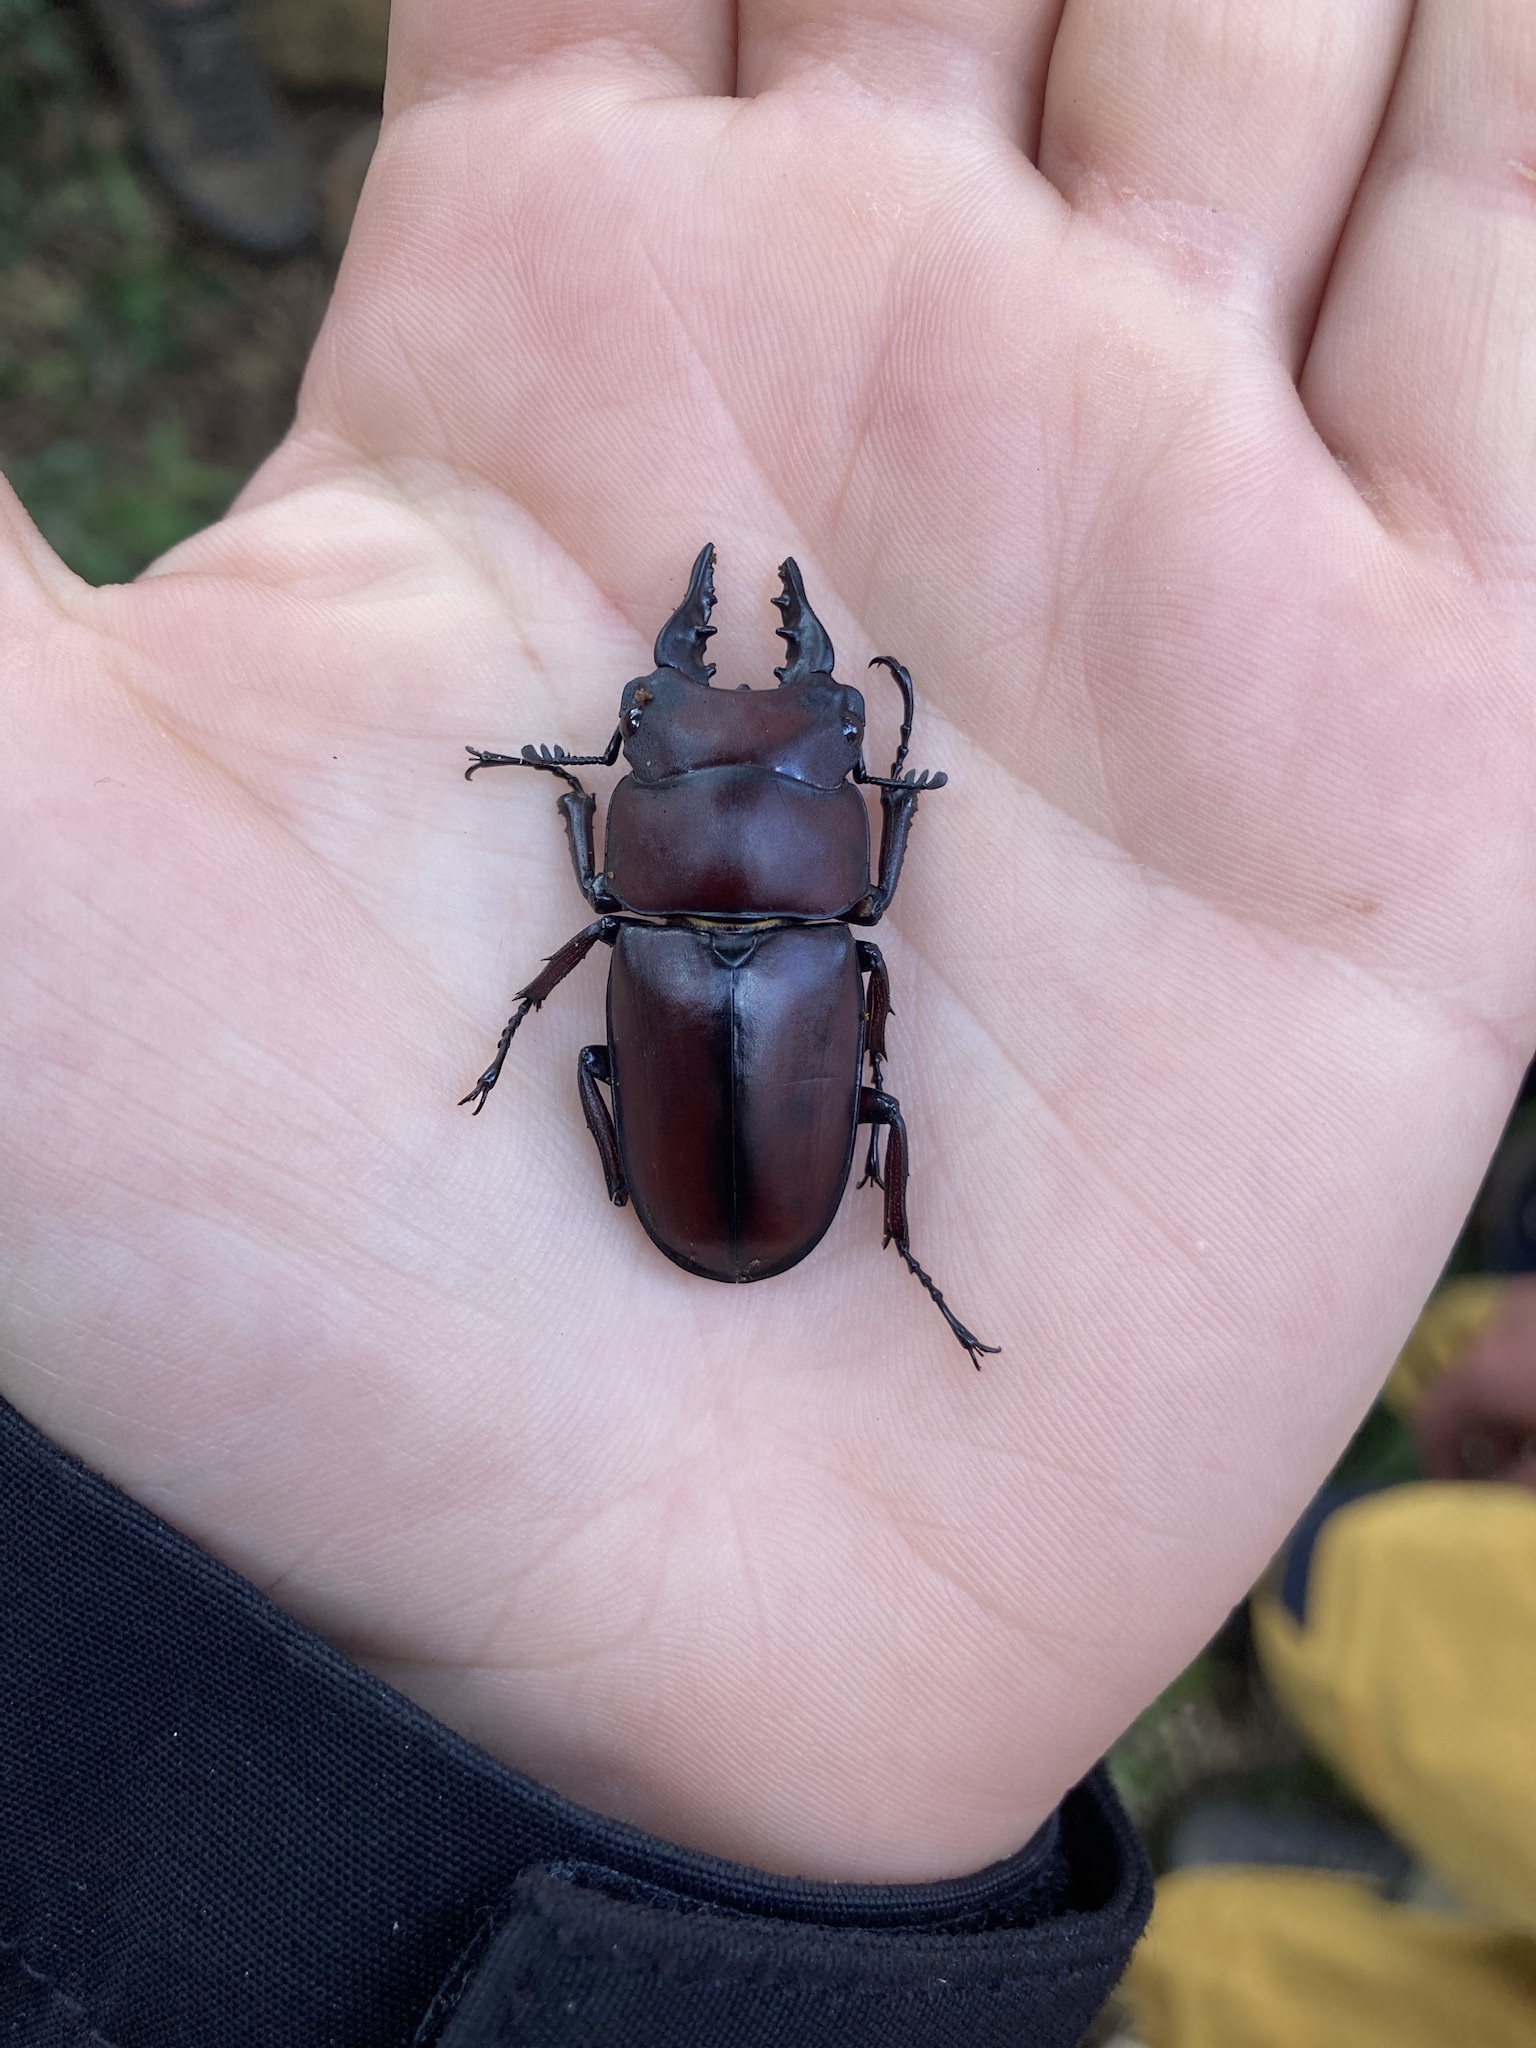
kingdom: Animalia
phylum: Arthropoda
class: Insecta
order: Coleoptera
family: Lucanidae
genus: Prosopocoilus
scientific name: Prosopocoilus natalensis
